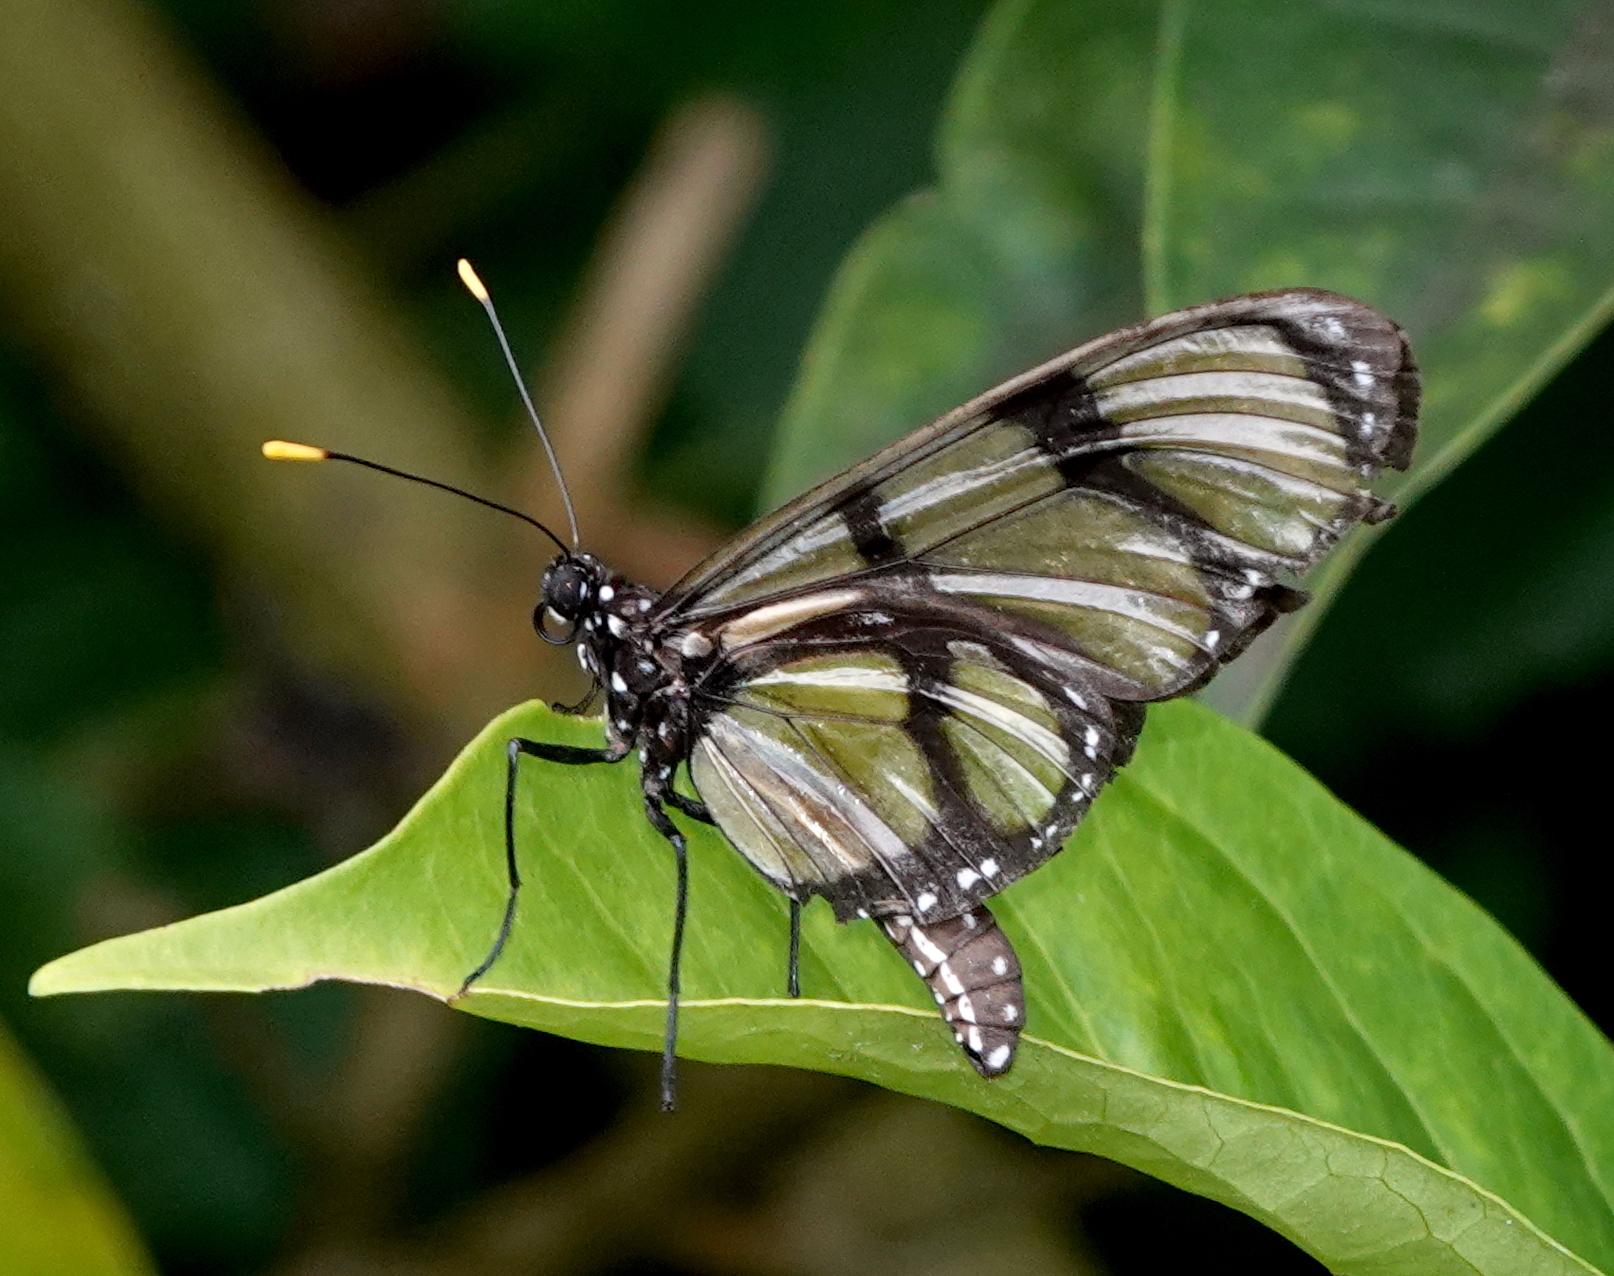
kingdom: Animalia
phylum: Arthropoda
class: Insecta
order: Lepidoptera
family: Nymphalidae
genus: Methona
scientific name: Methona confusa
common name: Confusa tigerwing
